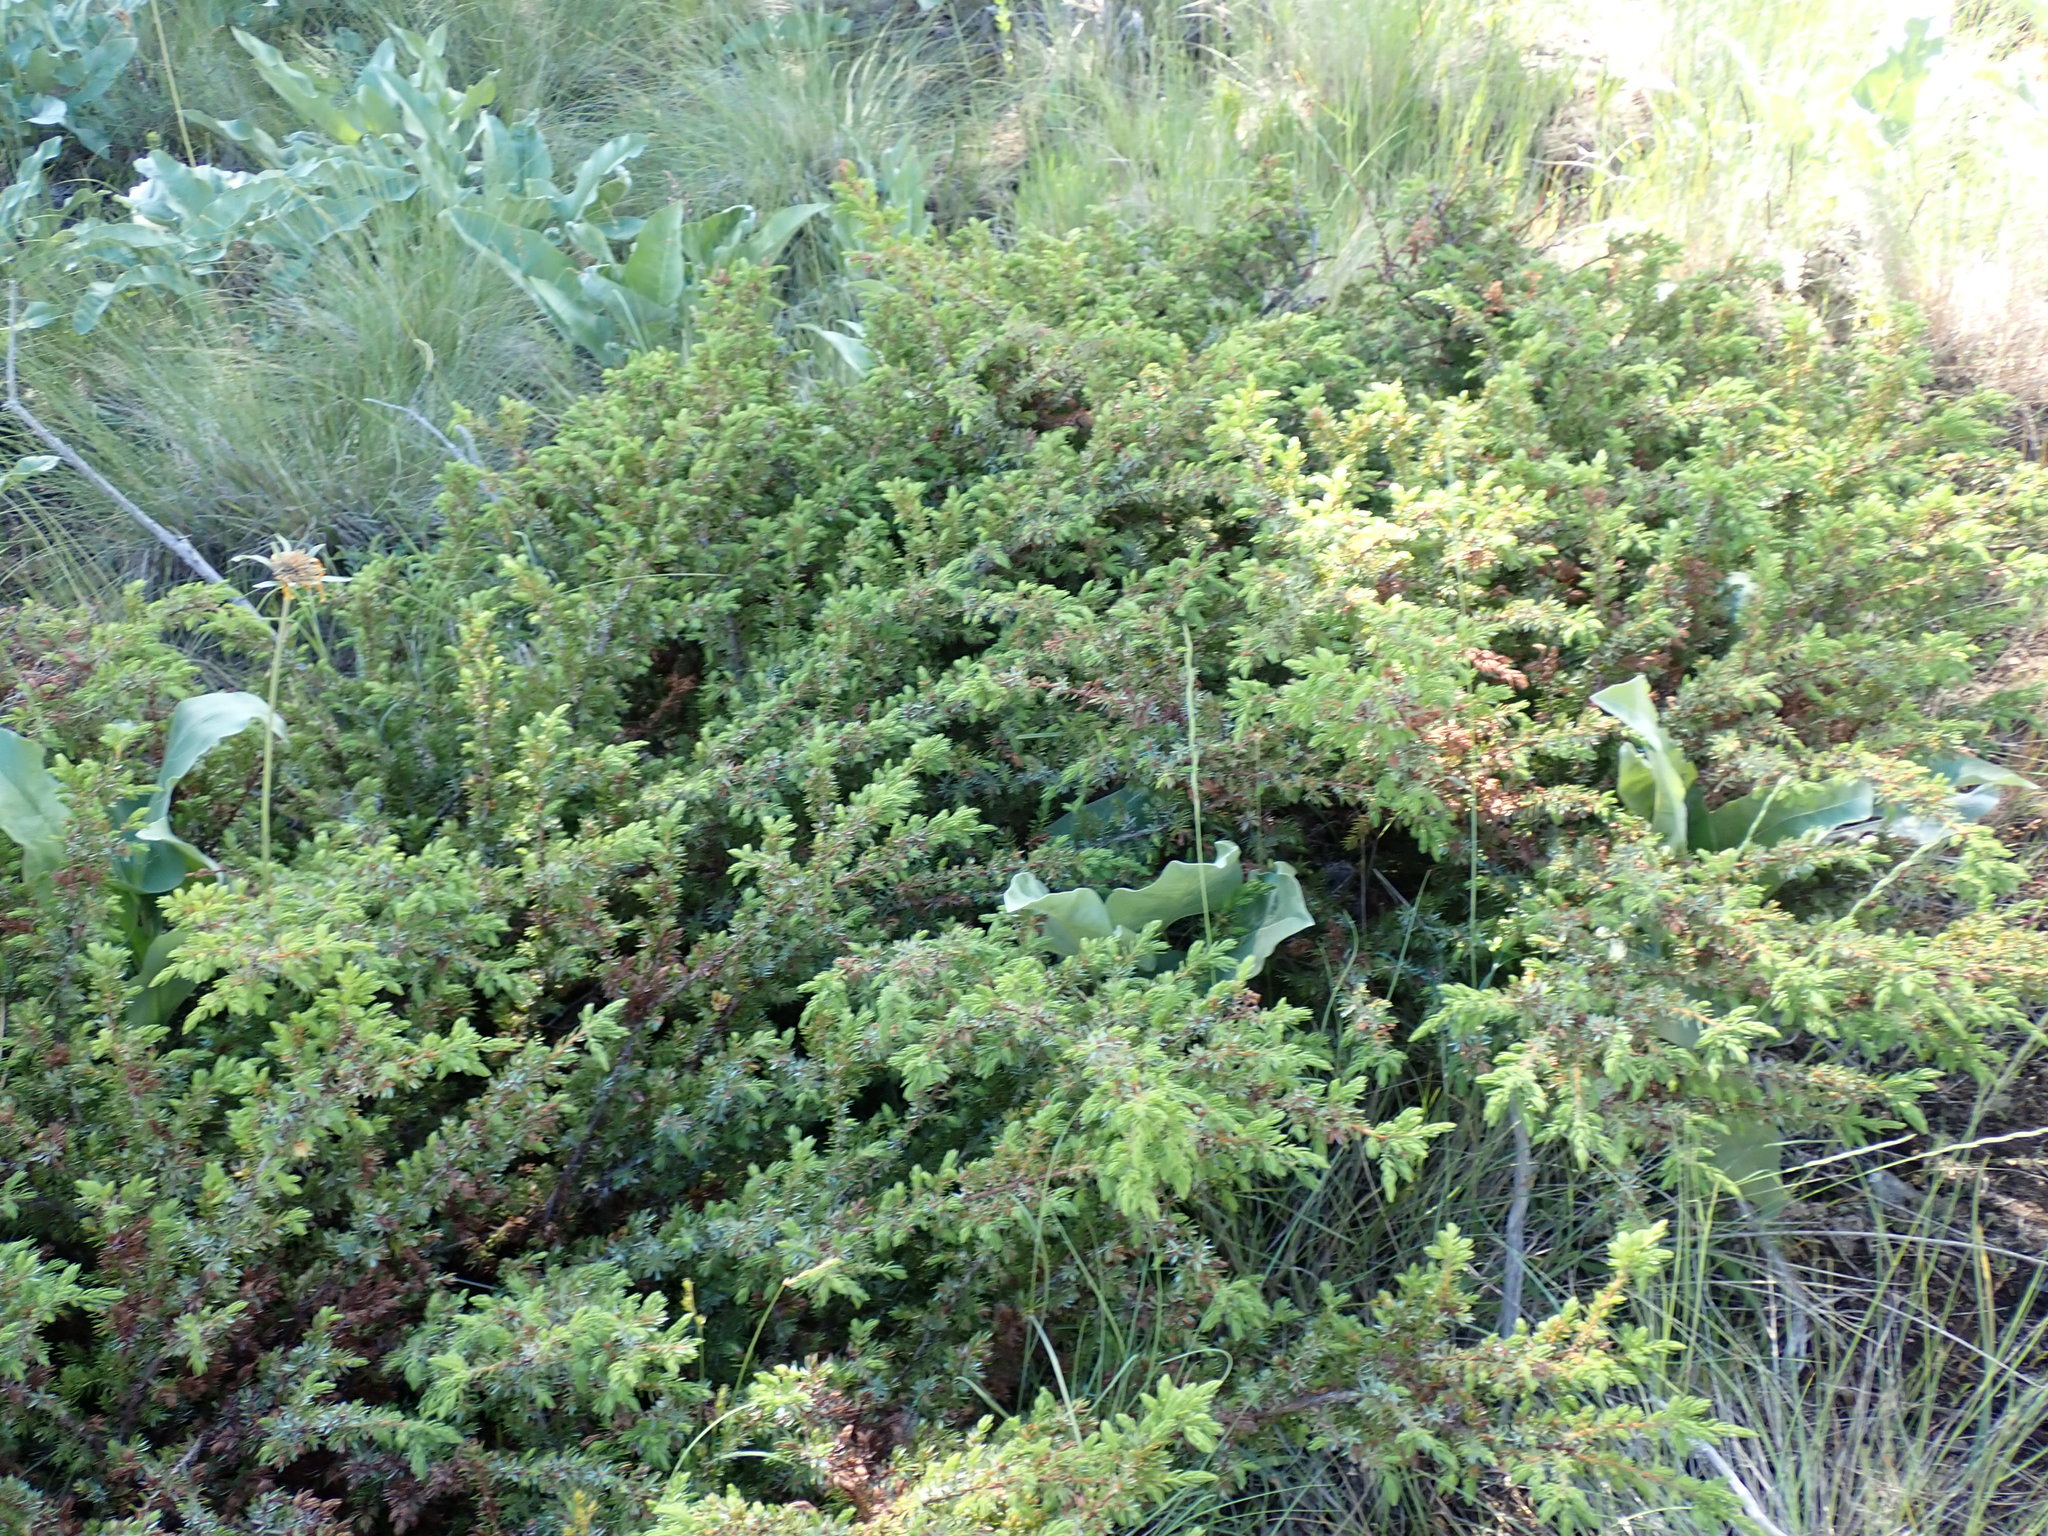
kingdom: Plantae
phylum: Tracheophyta
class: Pinopsida
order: Pinales
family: Cupressaceae
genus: Juniperus
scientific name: Juniperus communis
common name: Common juniper
